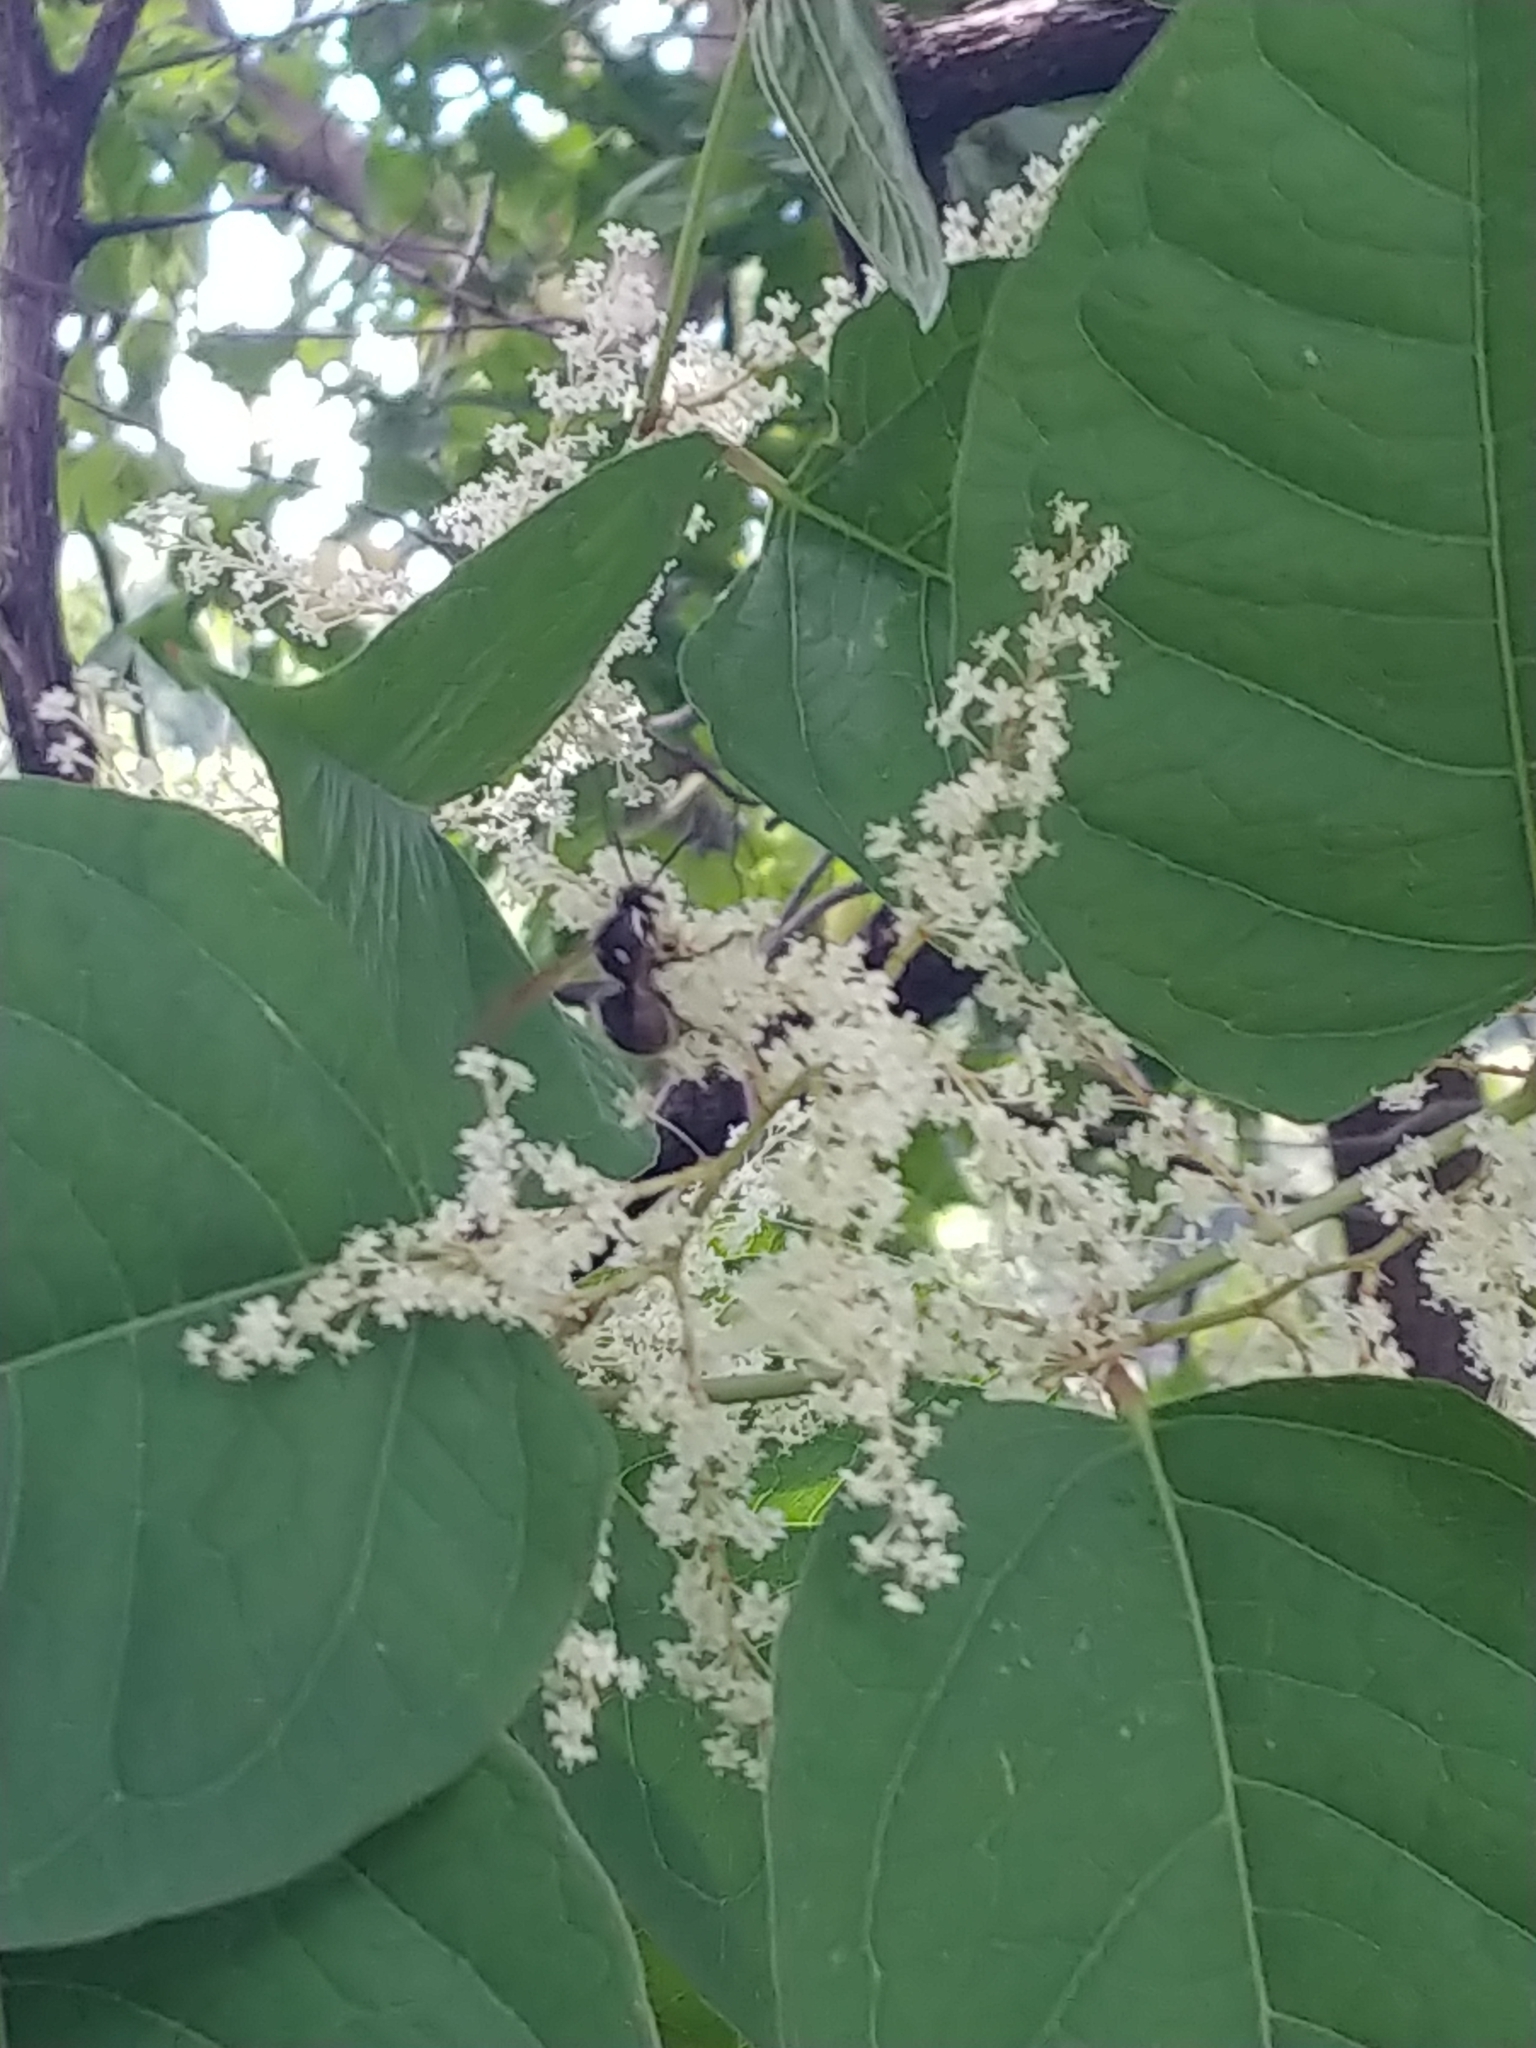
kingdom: Animalia
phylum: Arthropoda
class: Insecta
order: Hymenoptera
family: Vespidae
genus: Dolichovespula
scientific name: Dolichovespula maculata
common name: Bald-faced hornet
